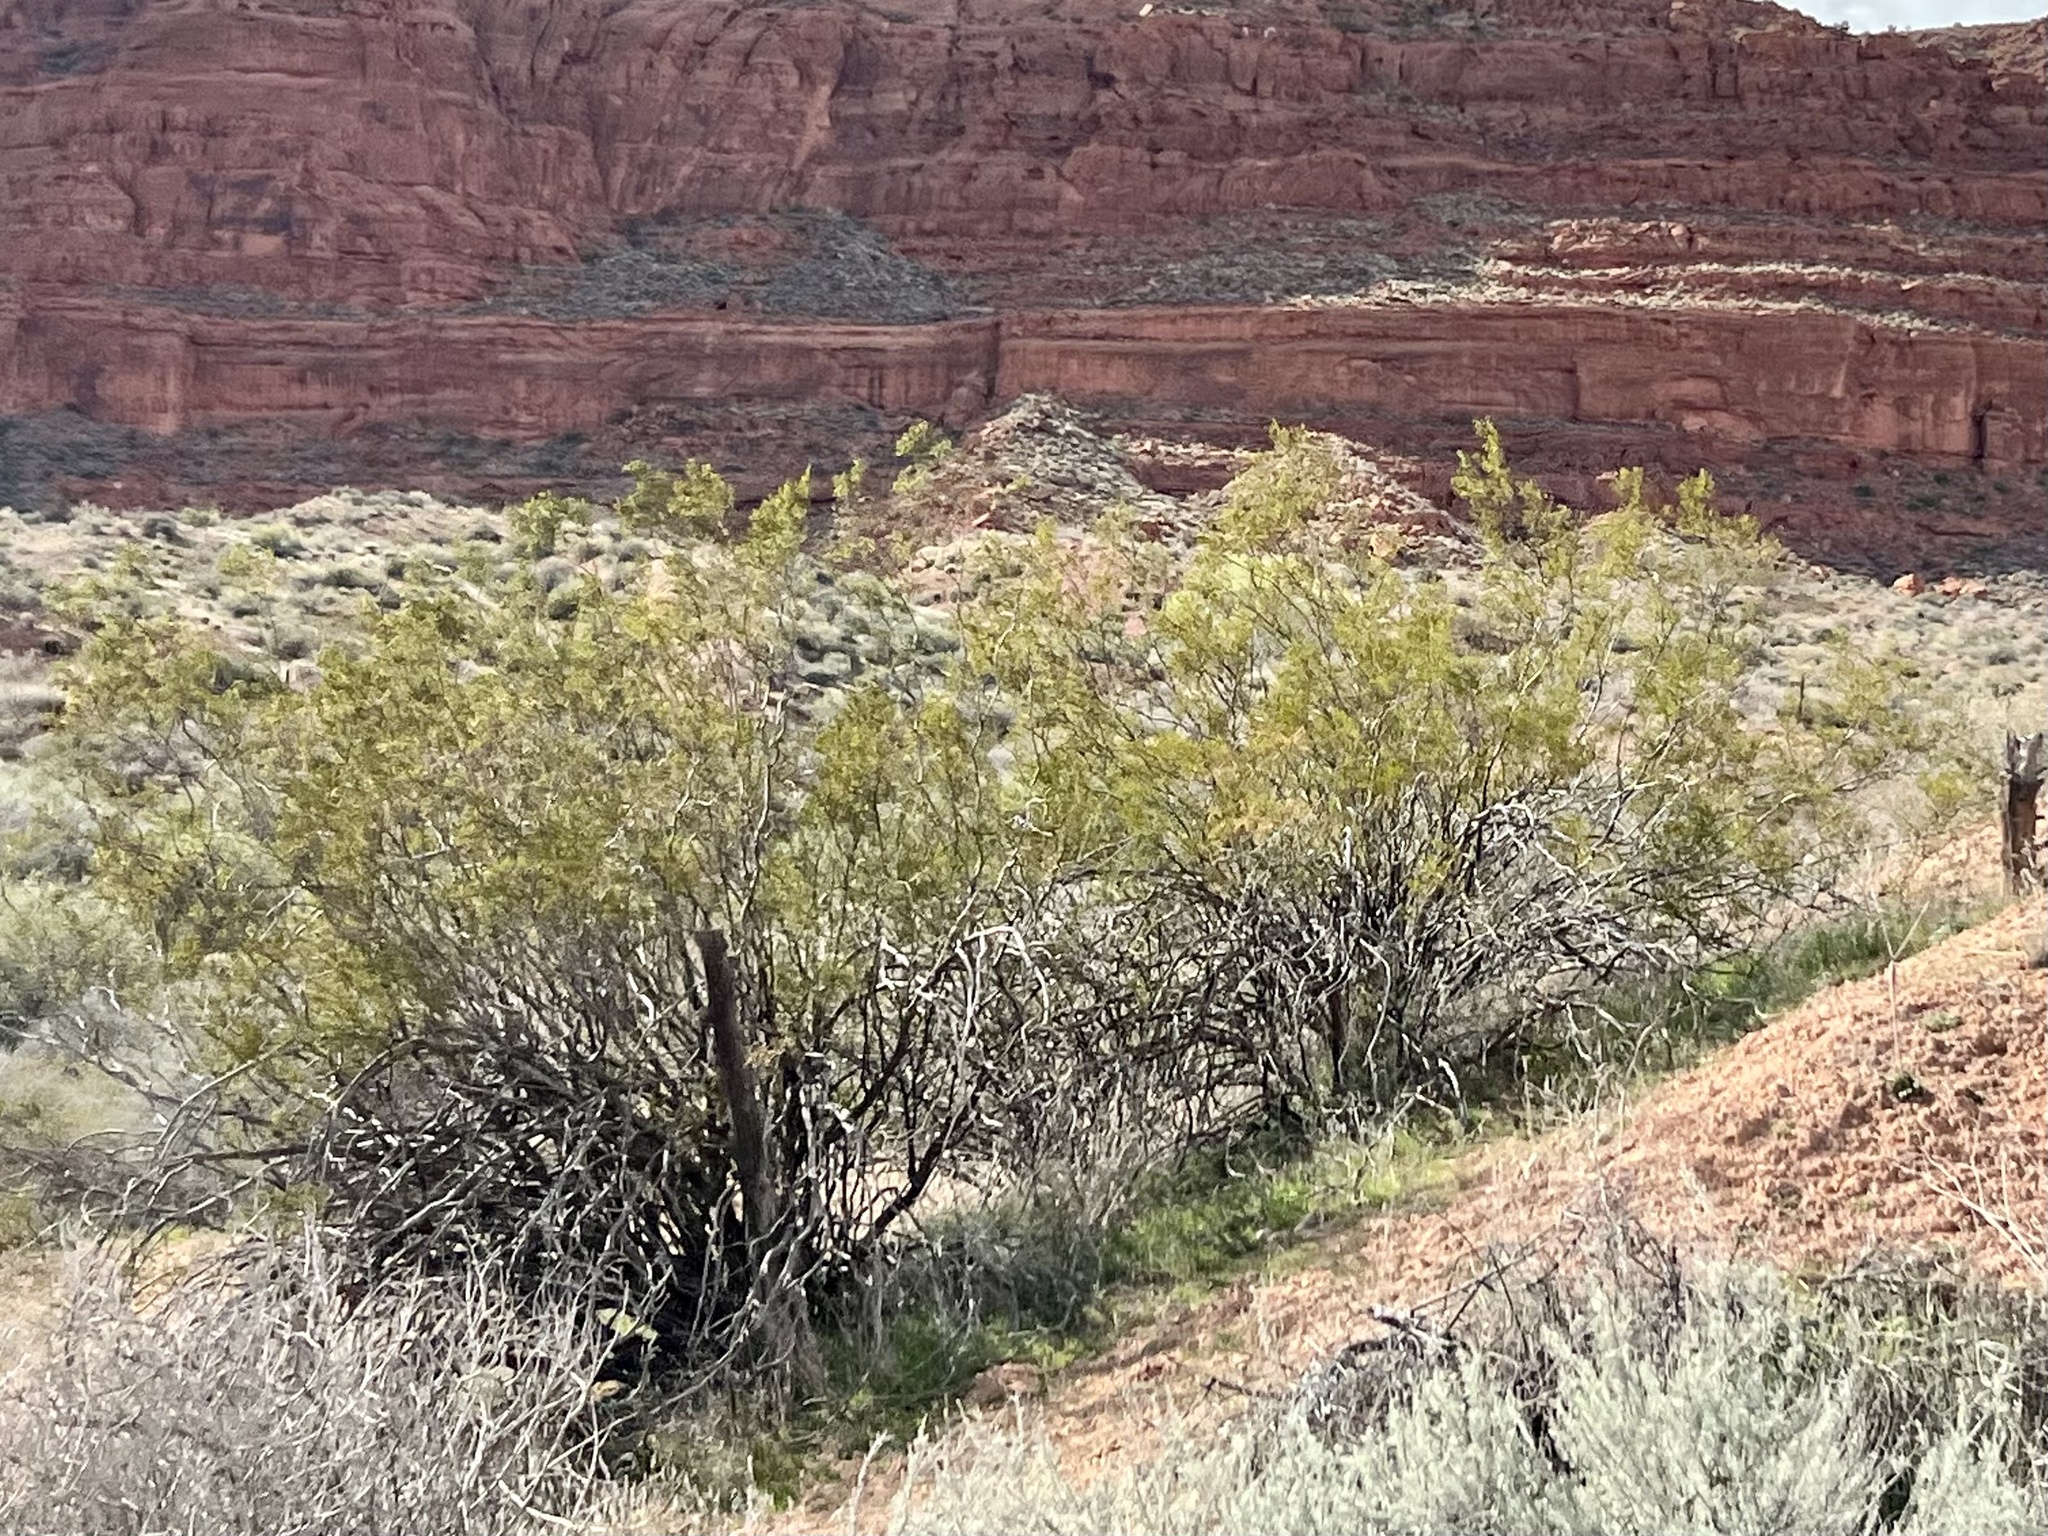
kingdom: Plantae
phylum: Tracheophyta
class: Magnoliopsida
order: Zygophyllales
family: Zygophyllaceae
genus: Larrea
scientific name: Larrea tridentata
